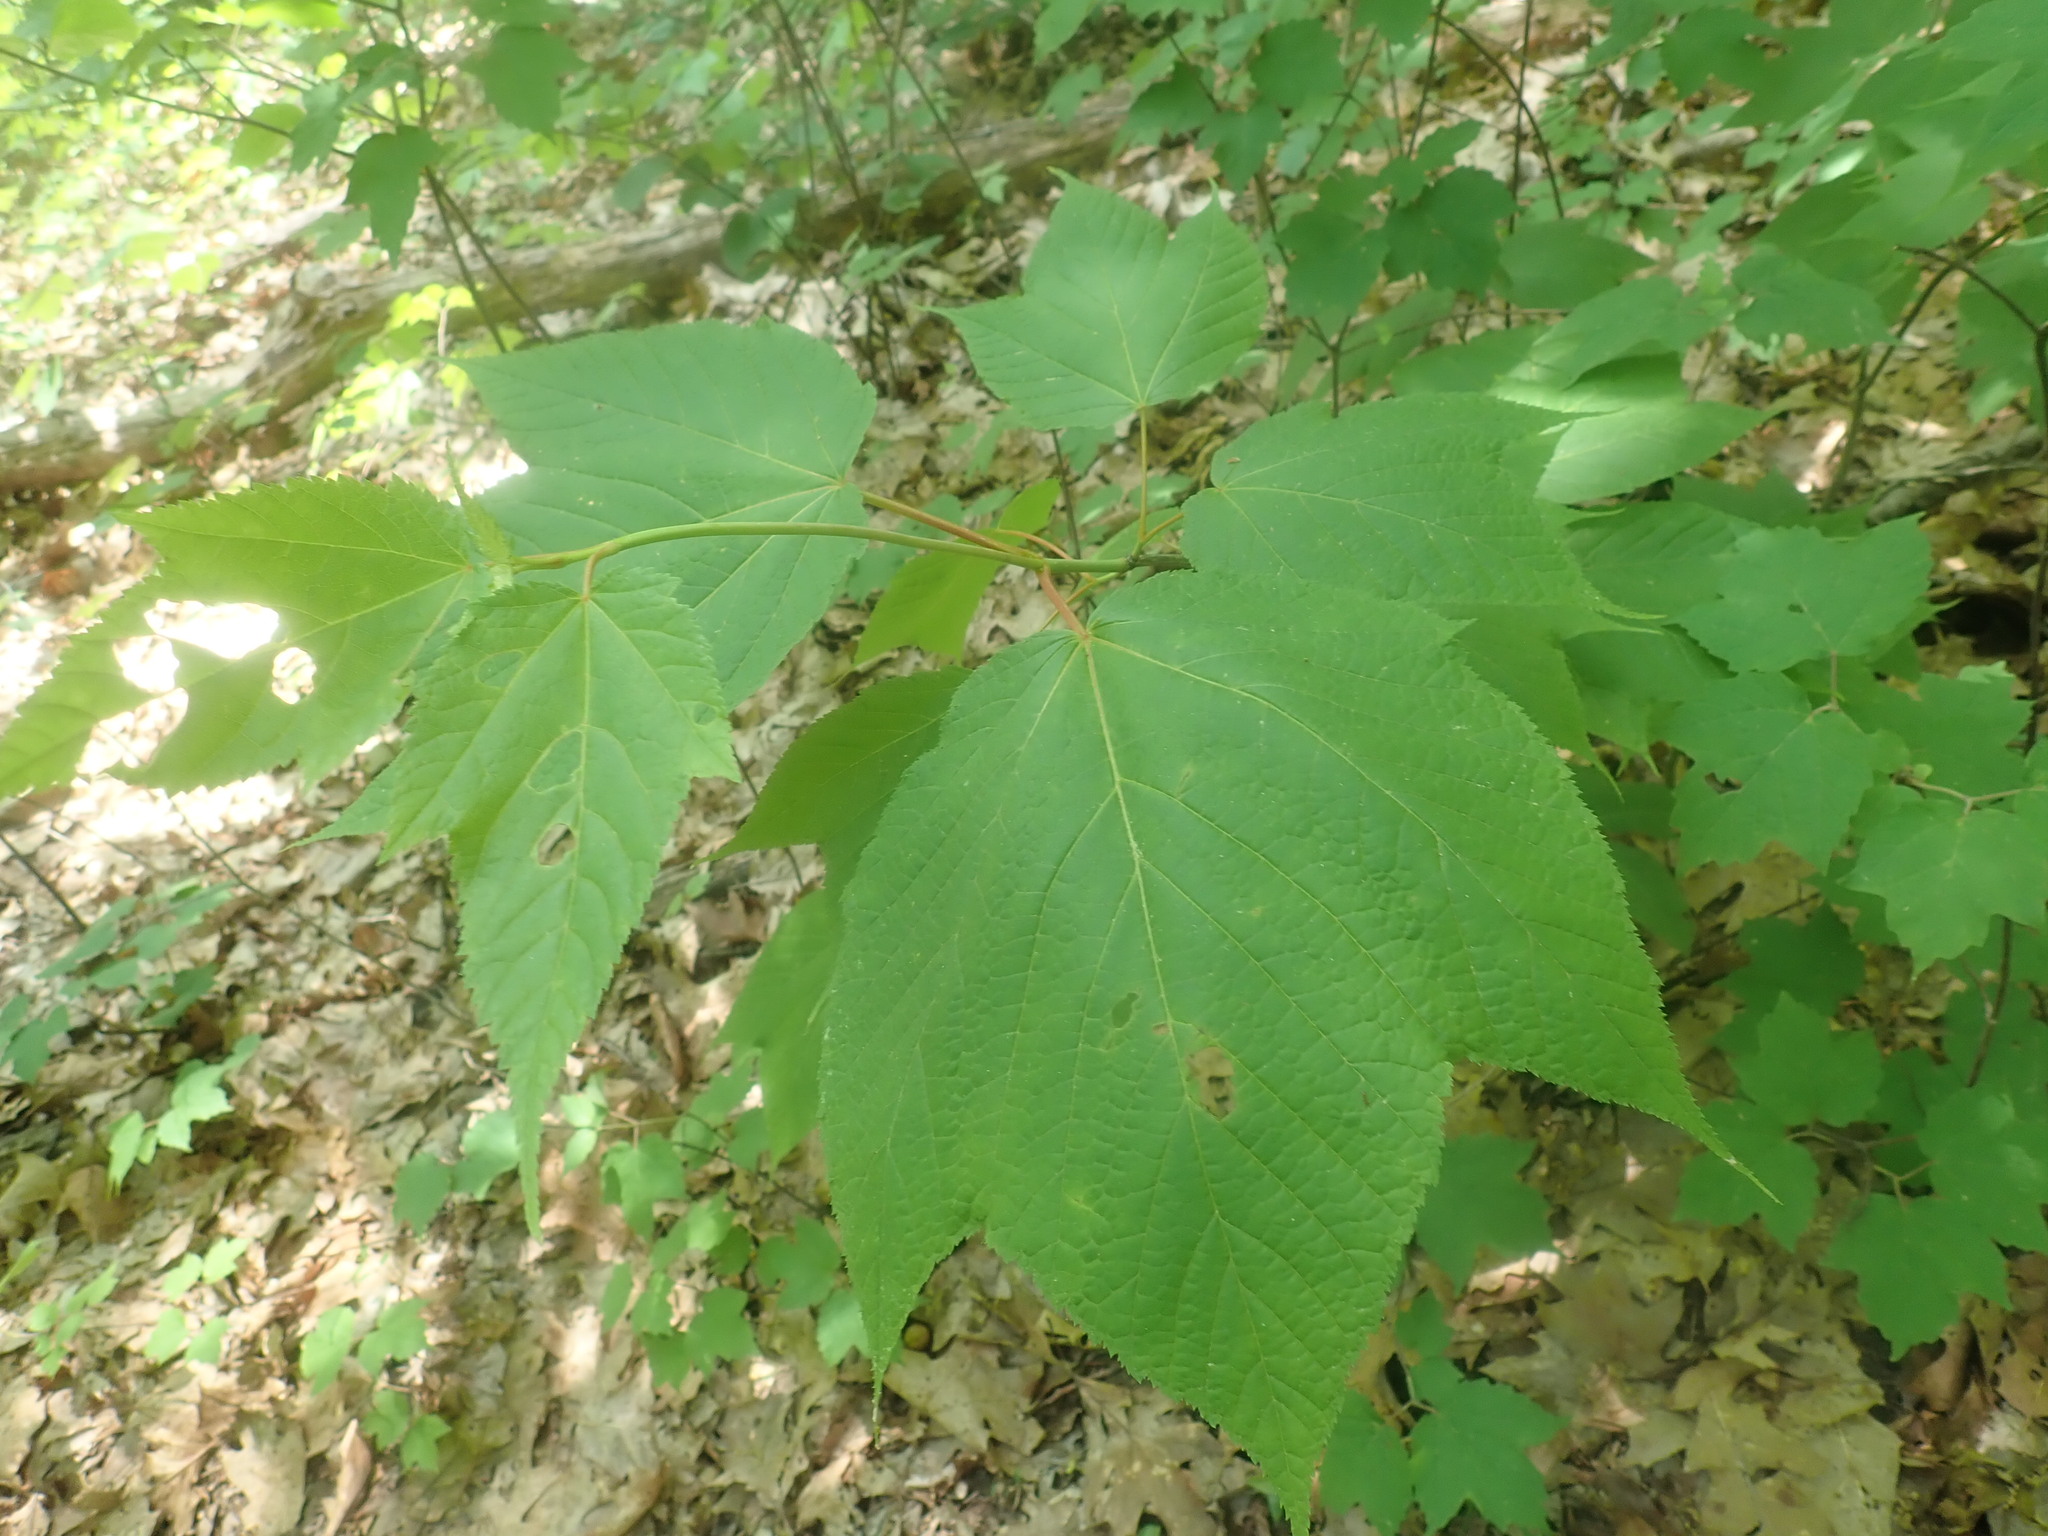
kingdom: Plantae
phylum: Tracheophyta
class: Magnoliopsida
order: Sapindales
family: Sapindaceae
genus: Acer
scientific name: Acer pensylvanicum
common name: Moosewood
